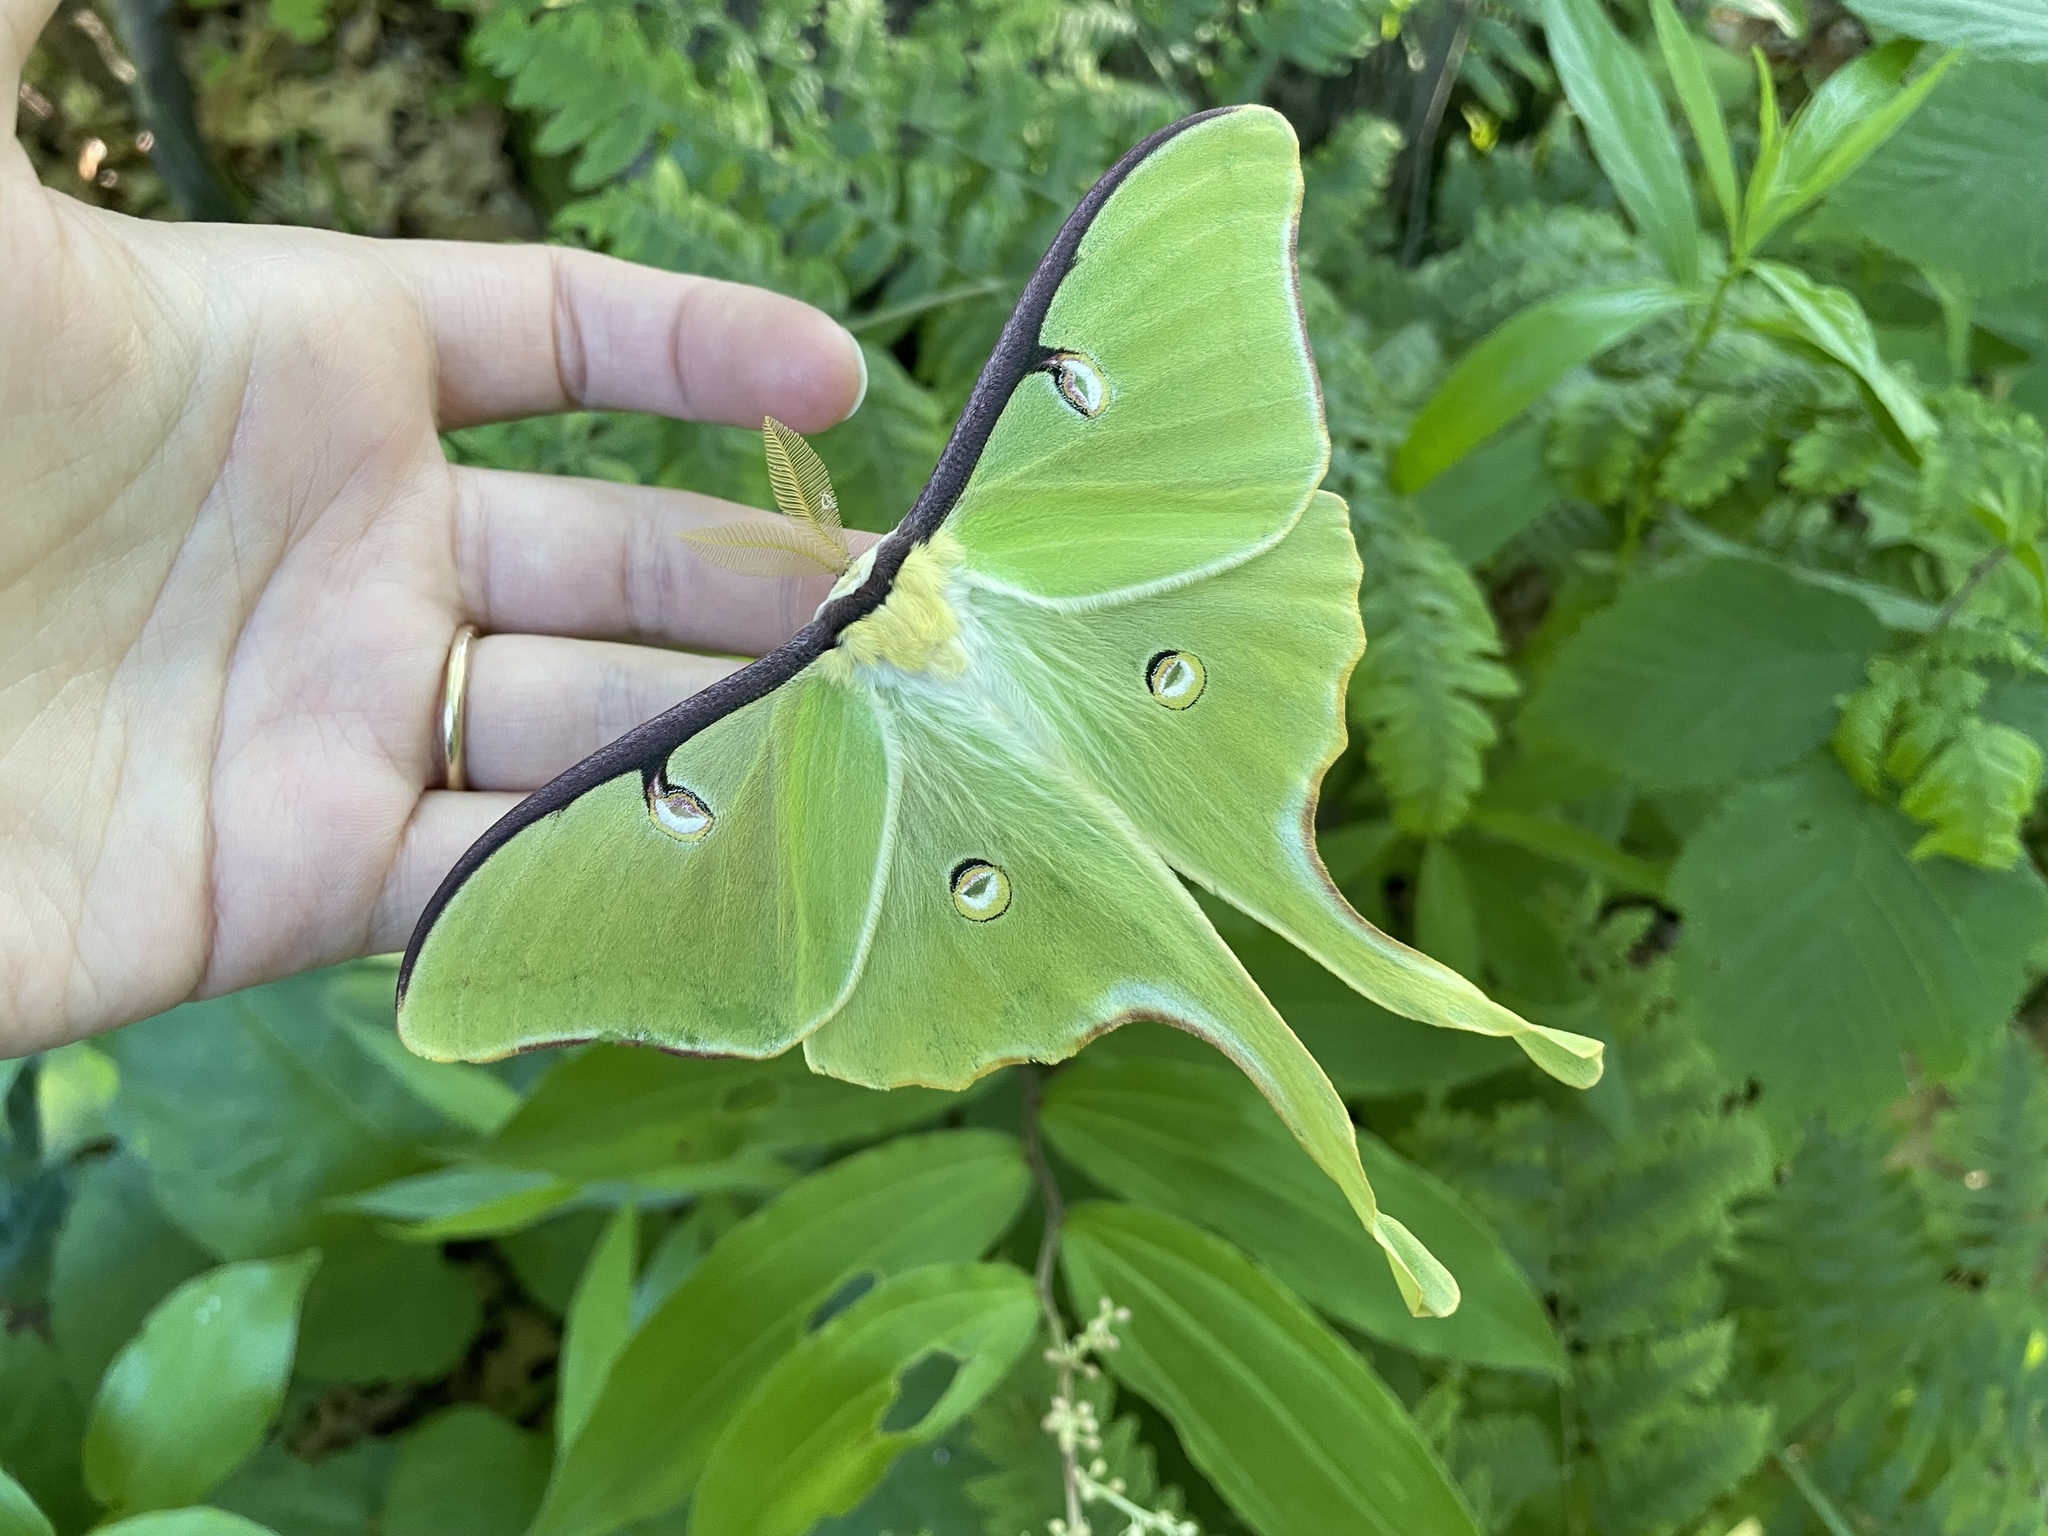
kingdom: Animalia
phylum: Arthropoda
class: Insecta
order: Lepidoptera
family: Saturniidae
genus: Actias
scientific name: Actias luna
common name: Luna moth
